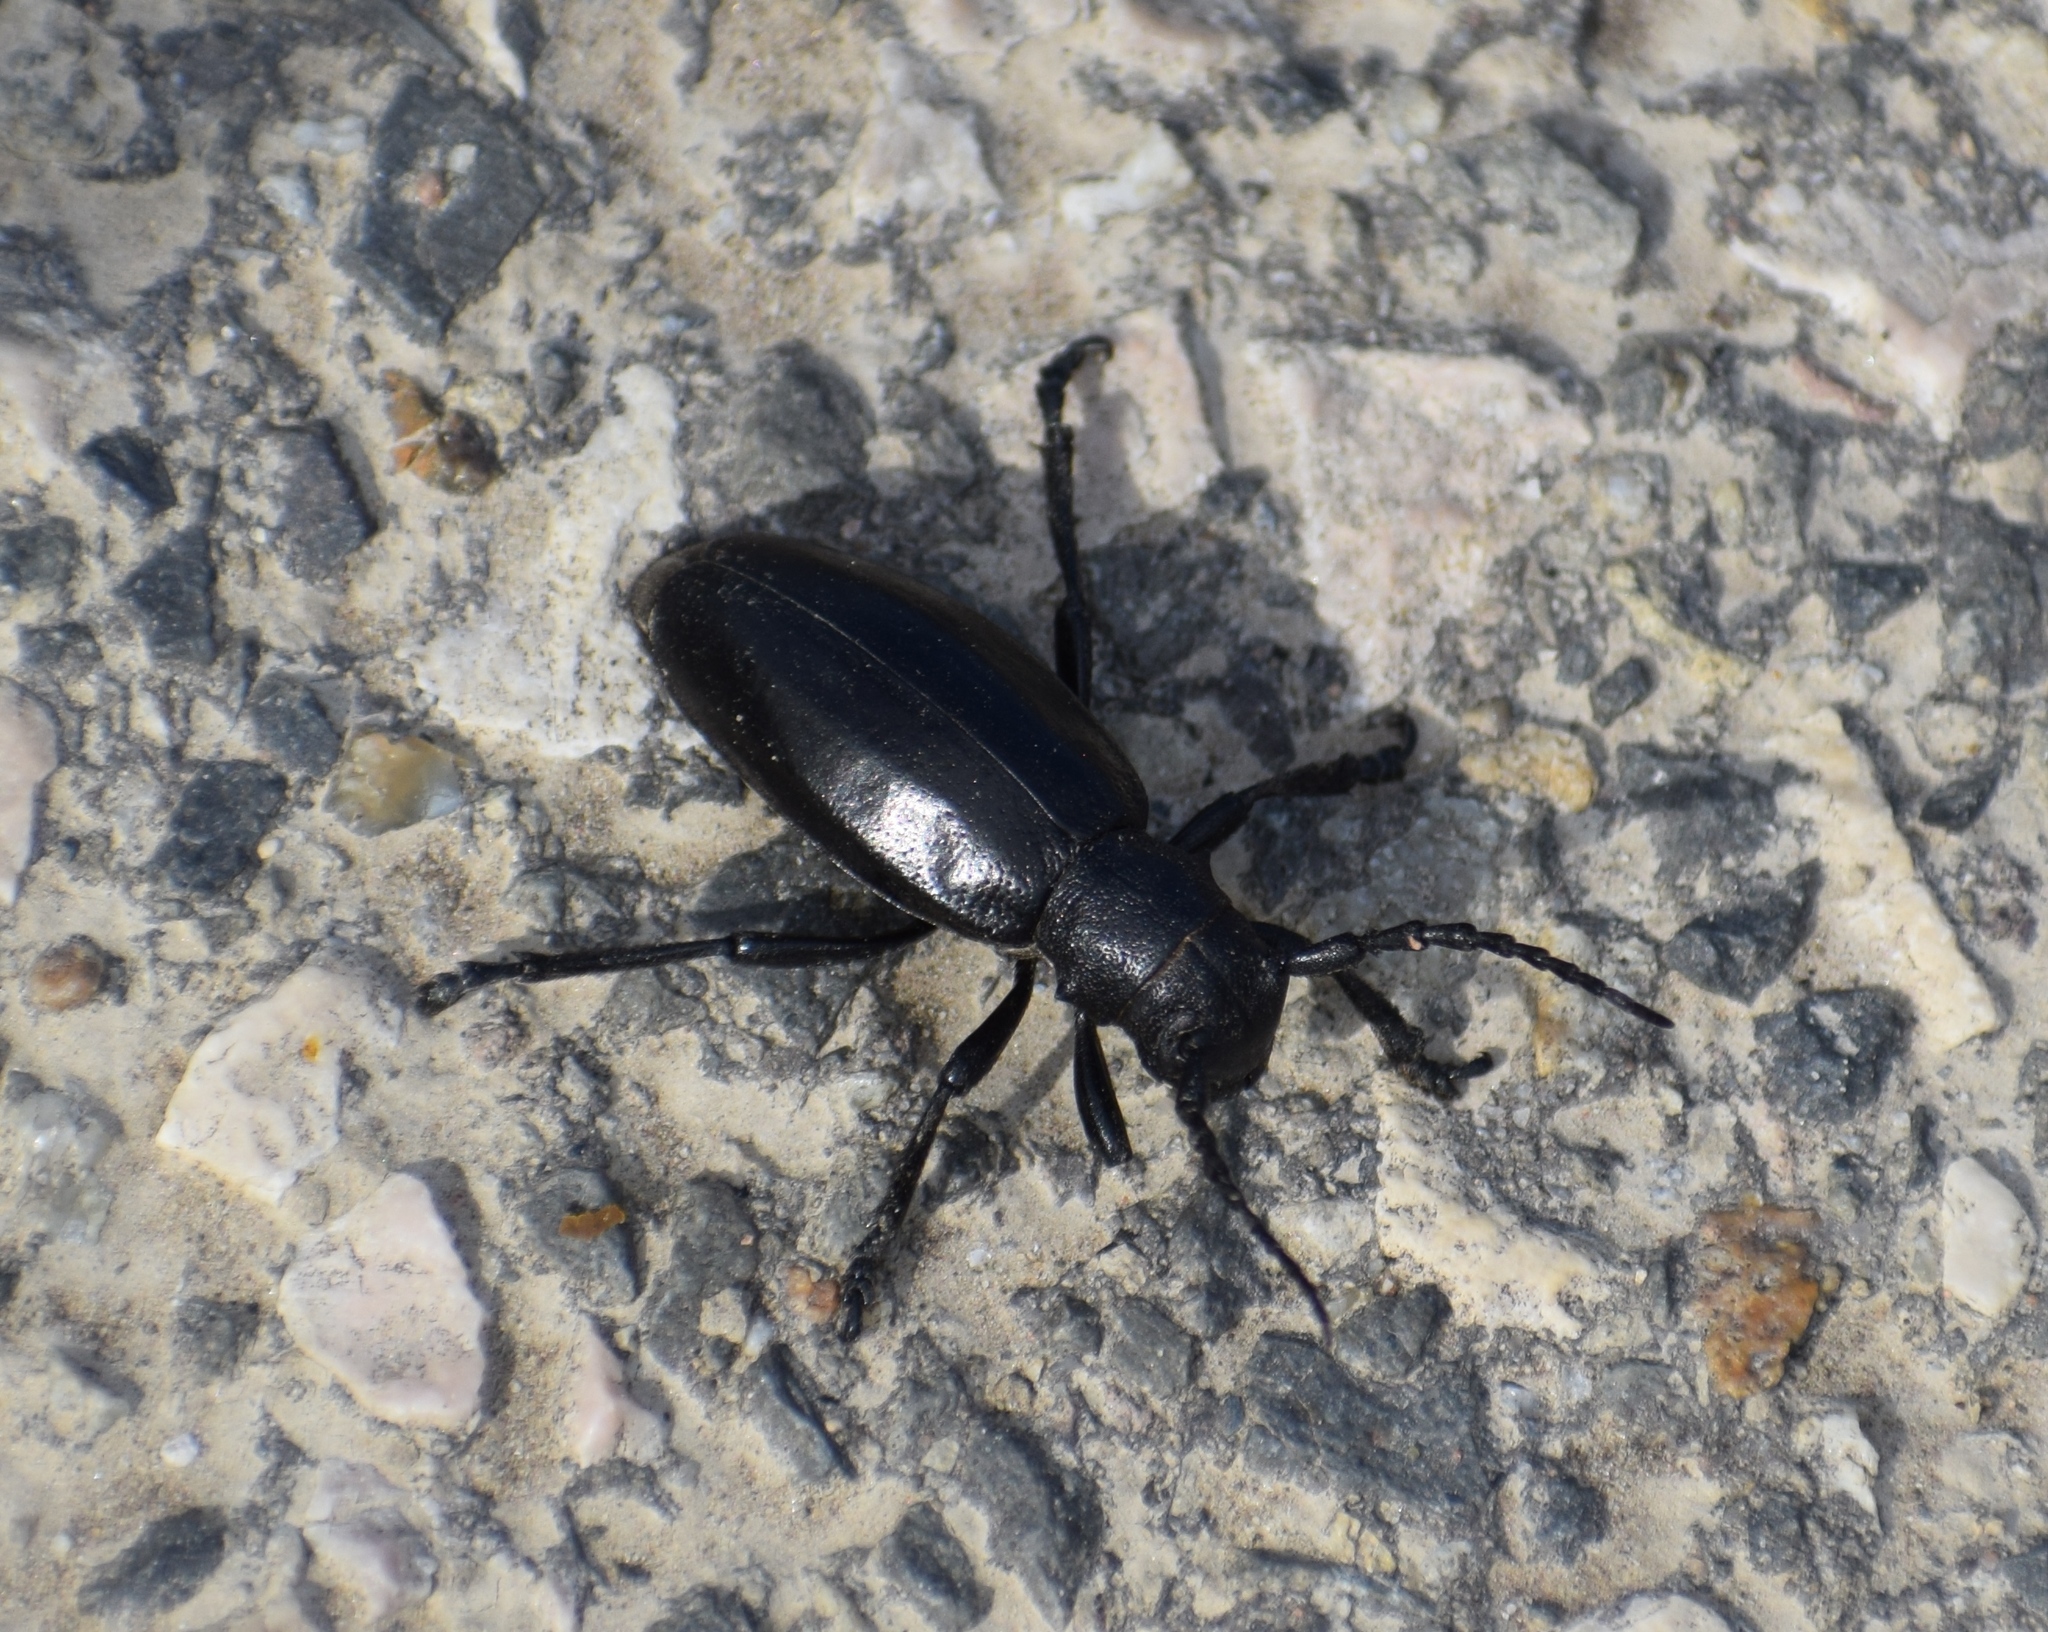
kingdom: Animalia
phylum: Arthropoda
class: Insecta
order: Coleoptera
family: Cerambycidae
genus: Dorcadion
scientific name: Dorcadion aethiops
